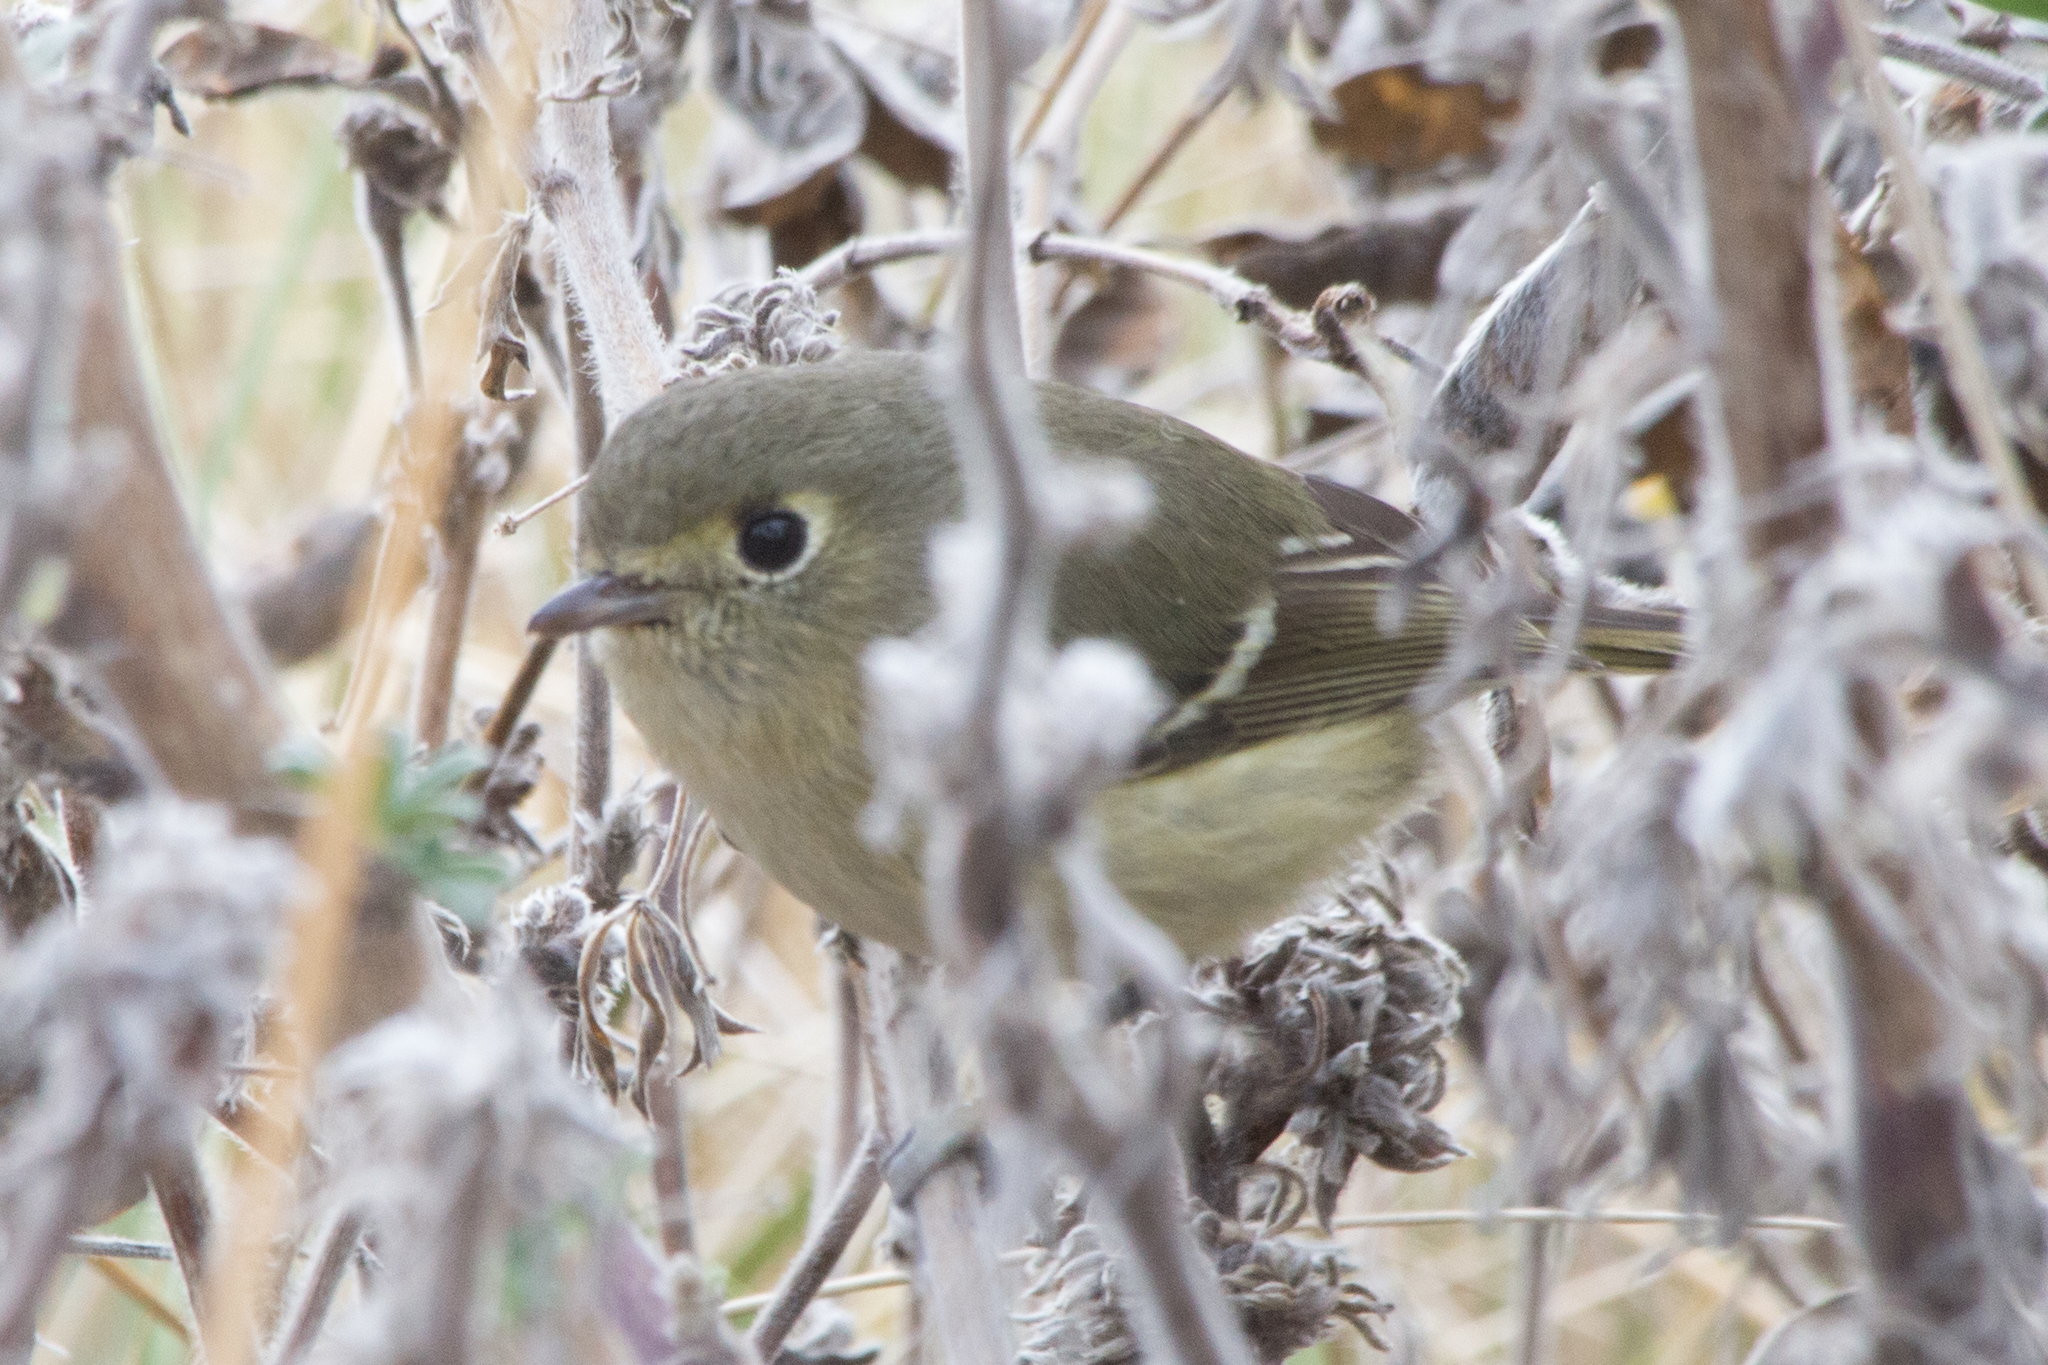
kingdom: Animalia
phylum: Chordata
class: Aves
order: Passeriformes
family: Vireonidae
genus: Vireo
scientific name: Vireo huttoni
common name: Hutton's vireo
